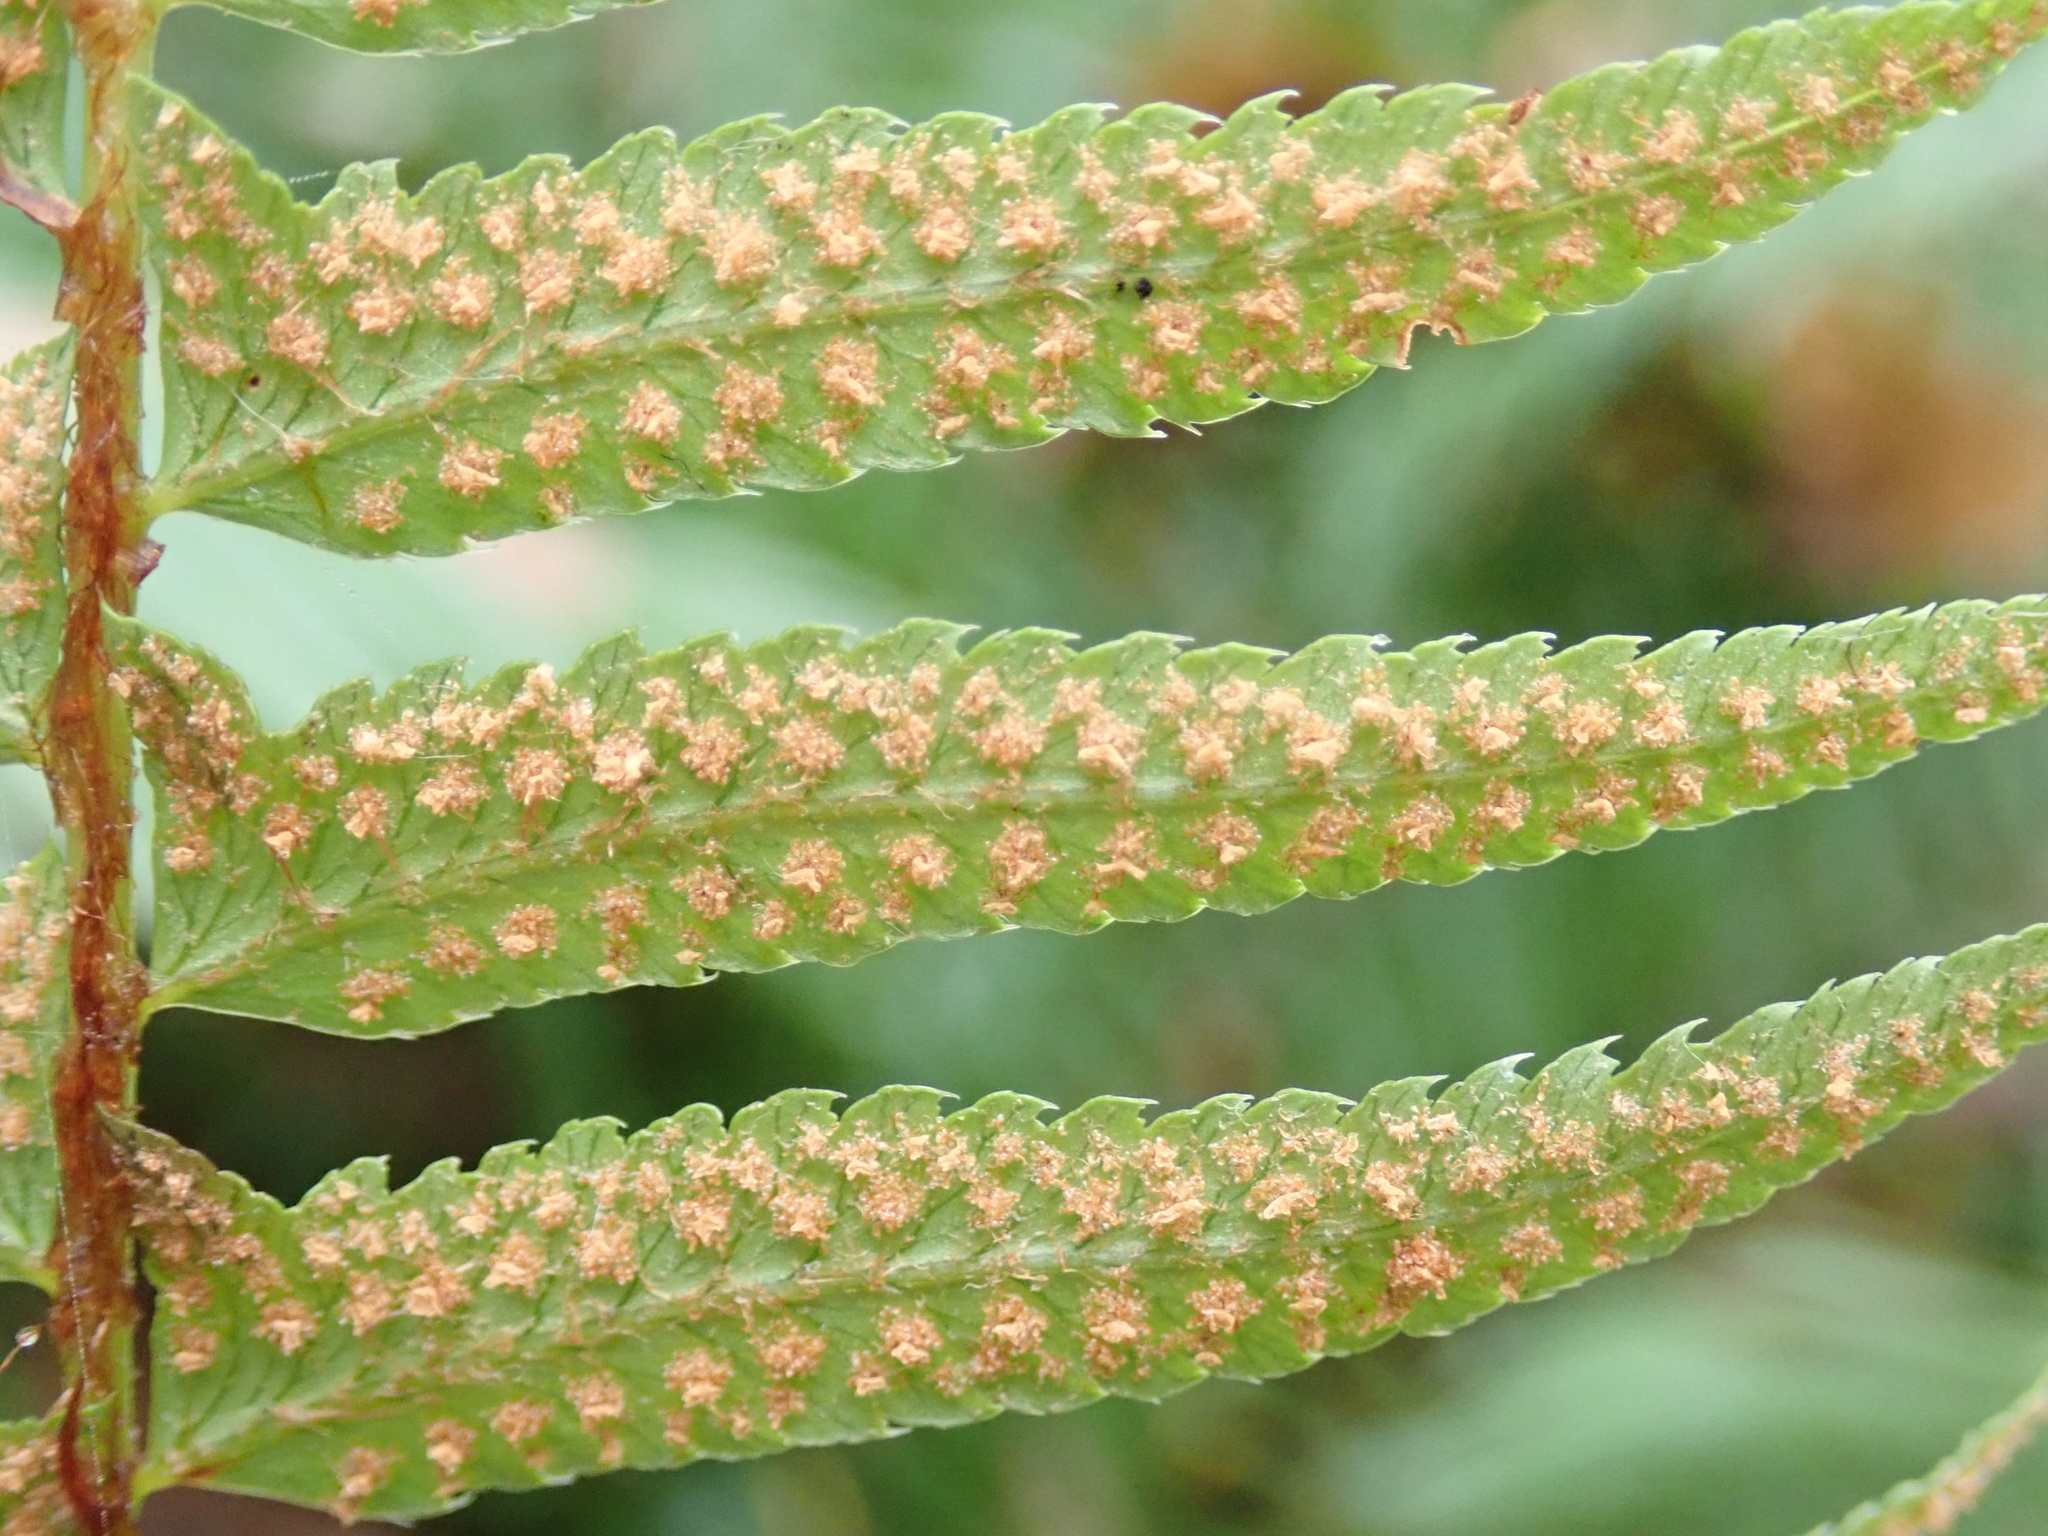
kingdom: Plantae
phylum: Tracheophyta
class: Polypodiopsida
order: Polypodiales
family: Dryopteridaceae
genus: Polystichum
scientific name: Polystichum munitum
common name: Western sword-fern
